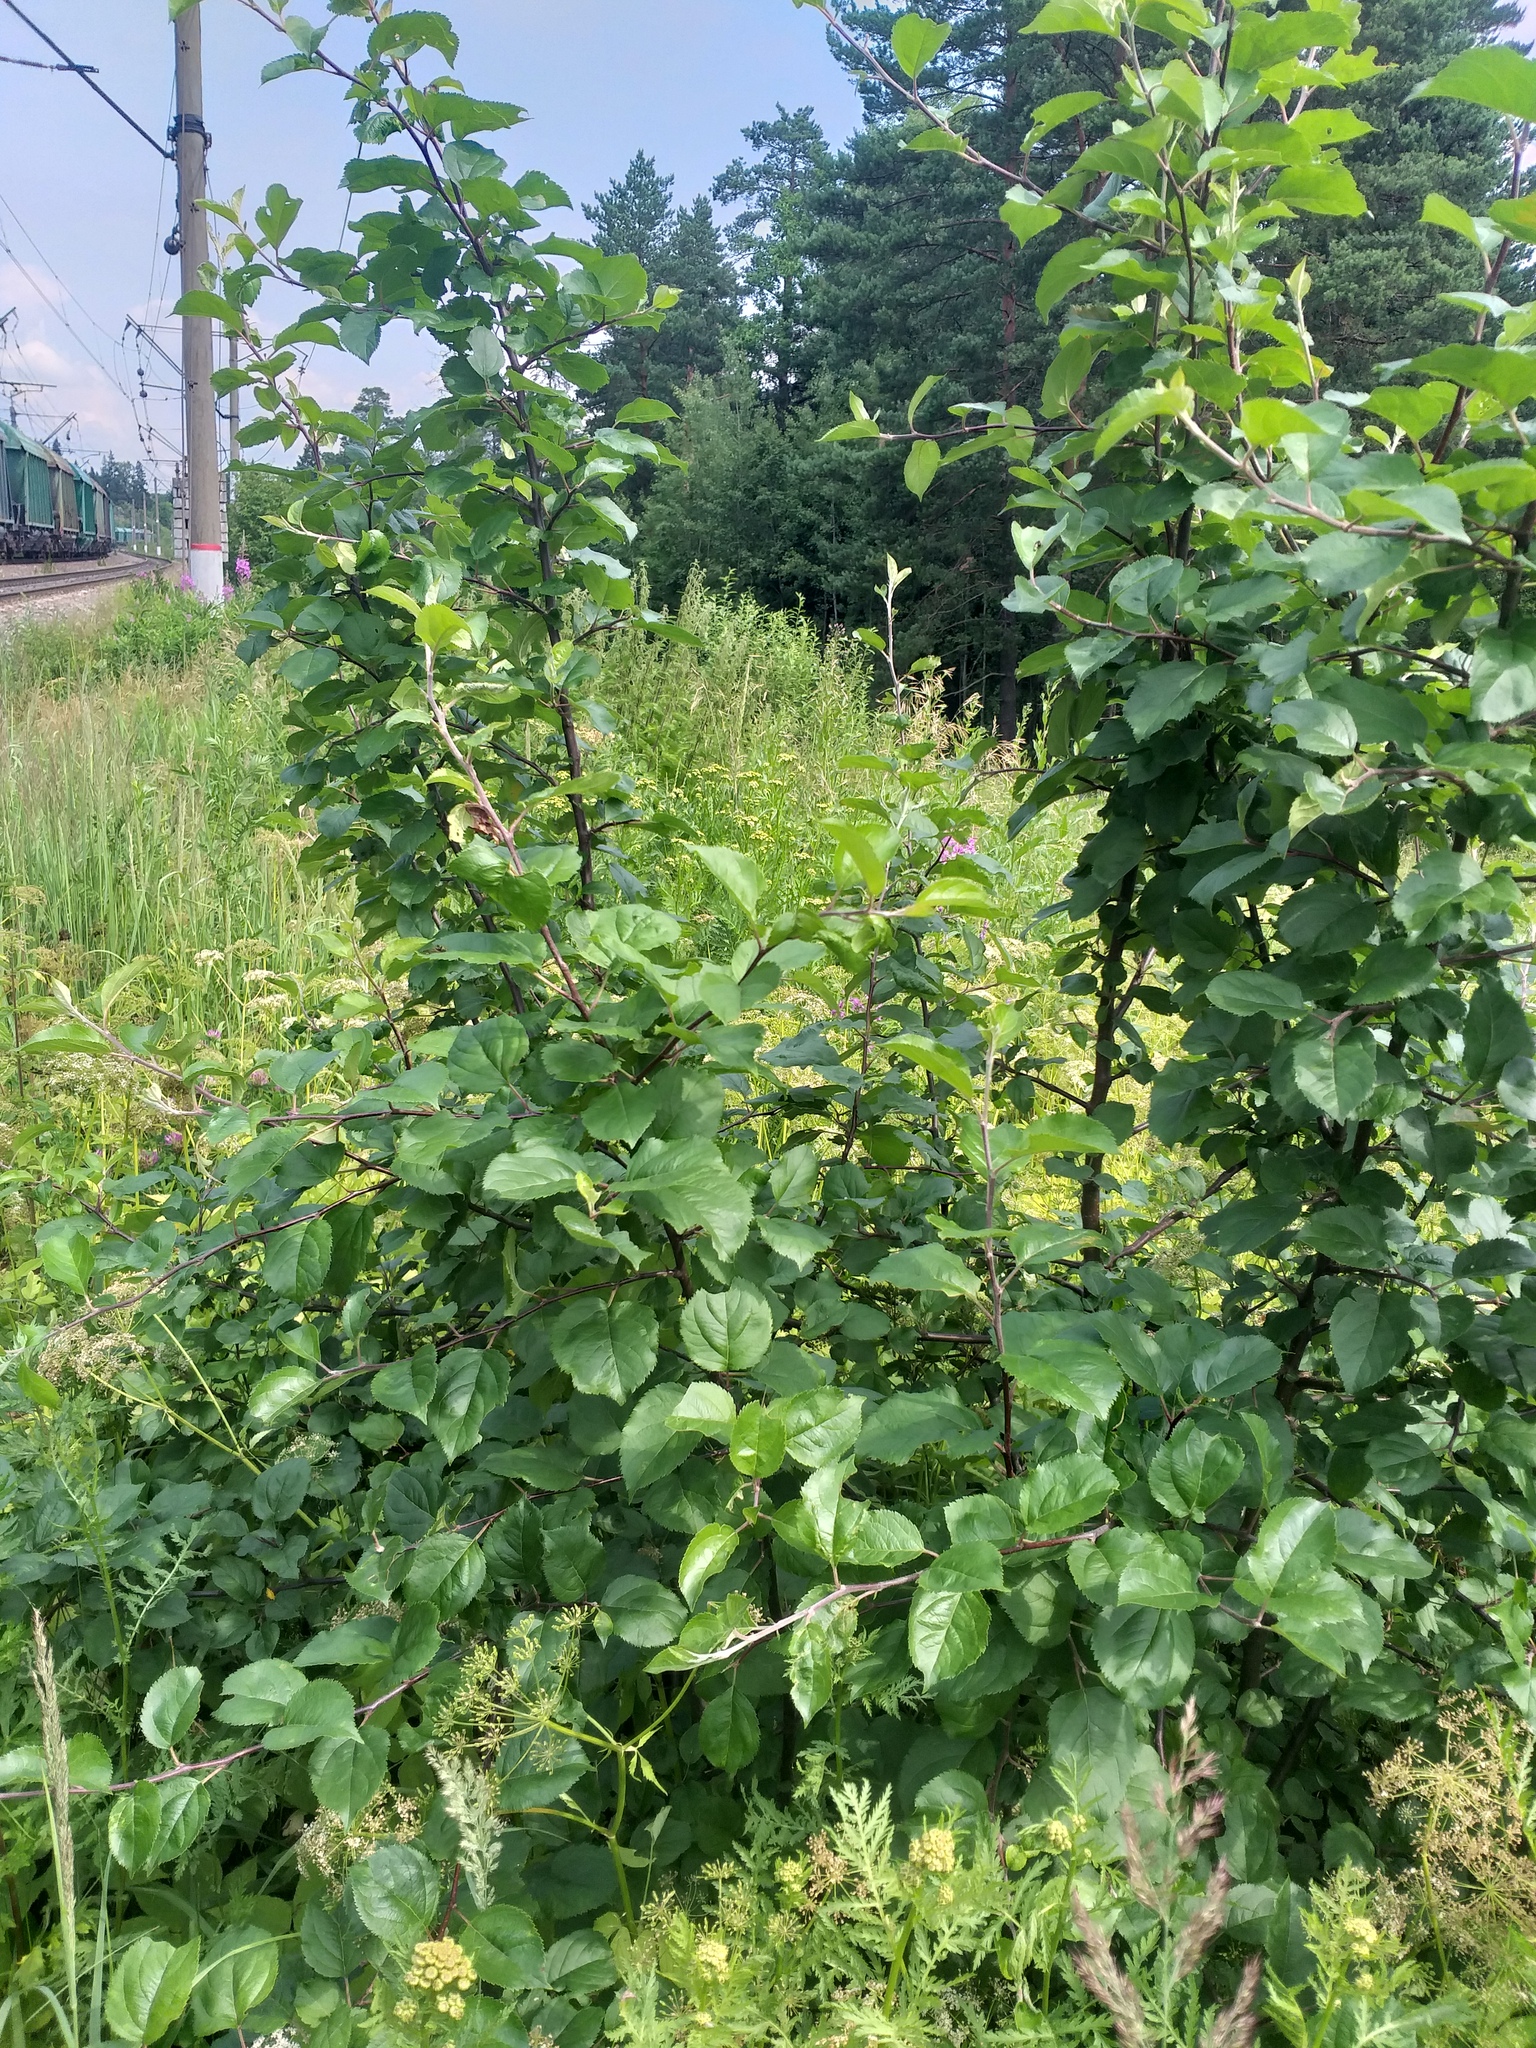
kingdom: Plantae
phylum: Tracheophyta
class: Magnoliopsida
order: Rosales
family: Rosaceae
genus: Malus
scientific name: Malus domestica
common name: Apple
